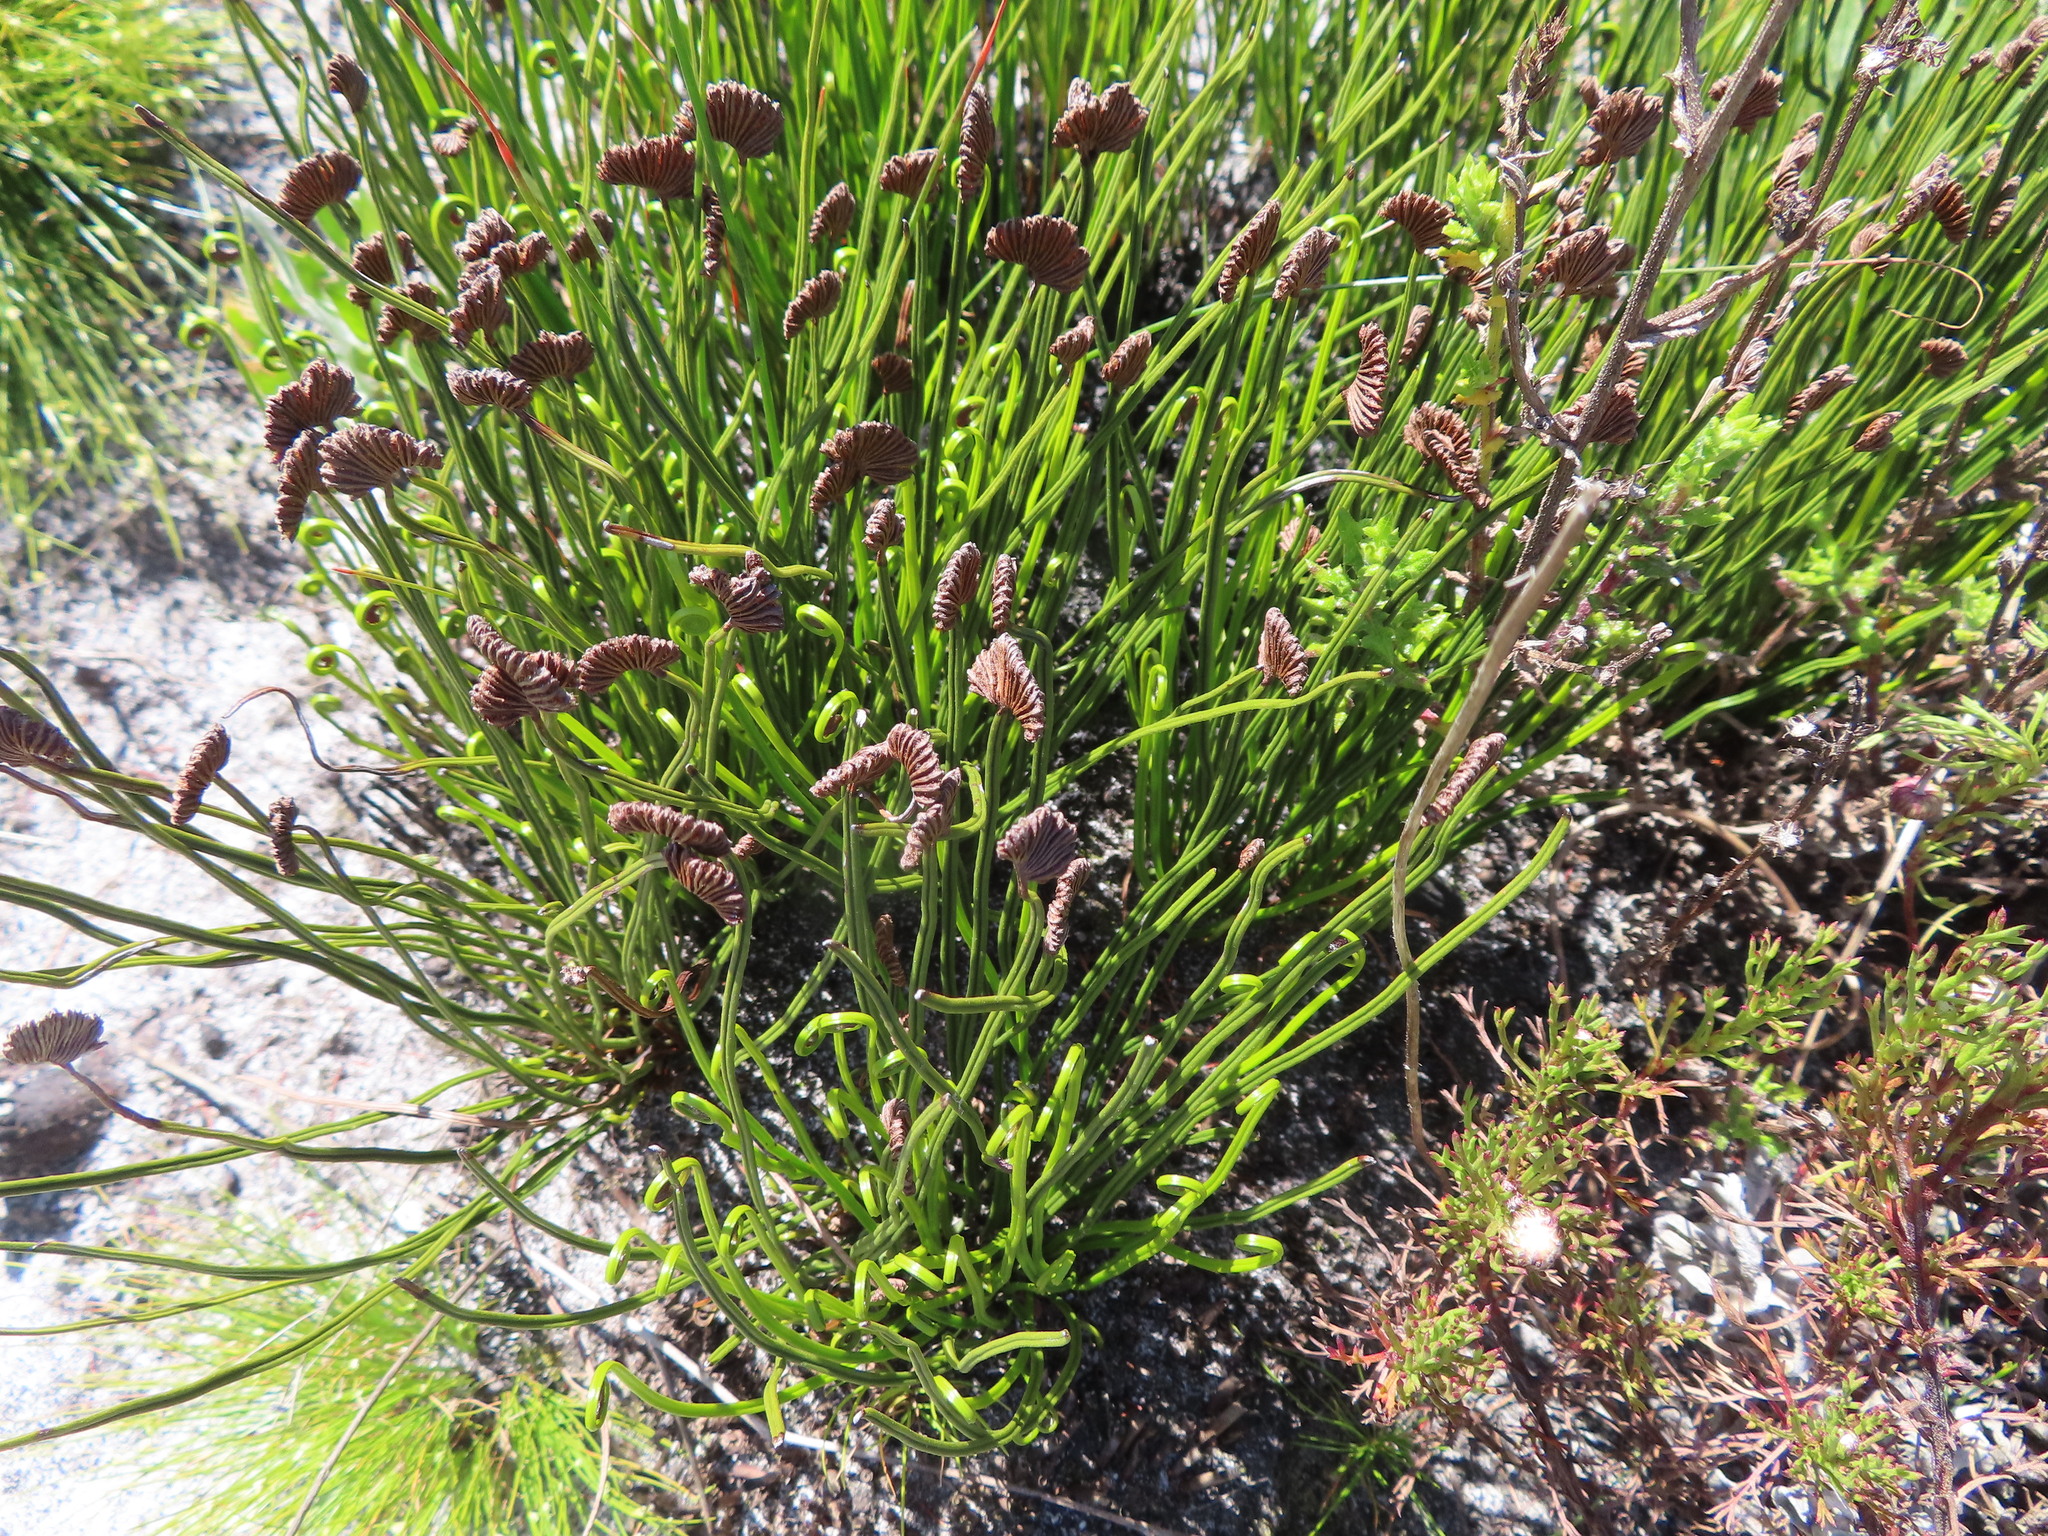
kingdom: Plantae
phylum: Tracheophyta
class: Polypodiopsida
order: Schizaeales
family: Schizaeaceae
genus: Schizaea
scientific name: Schizaea pectinata
